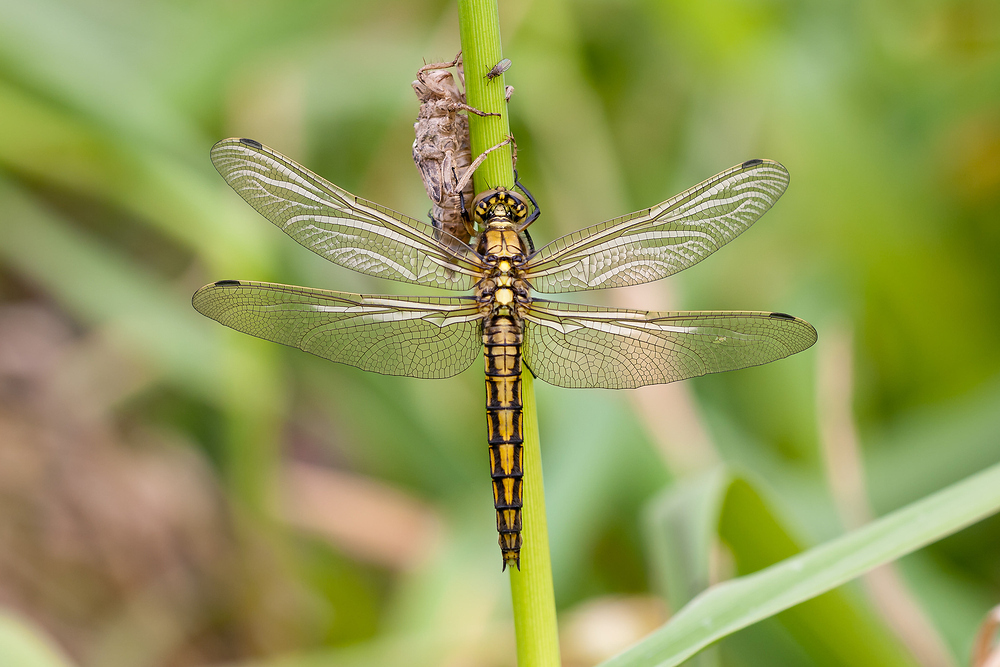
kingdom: Animalia
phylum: Arthropoda
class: Insecta
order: Odonata
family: Libellulidae
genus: Orthetrum
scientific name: Orthetrum cancellatum
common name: Black-tailed skimmer
